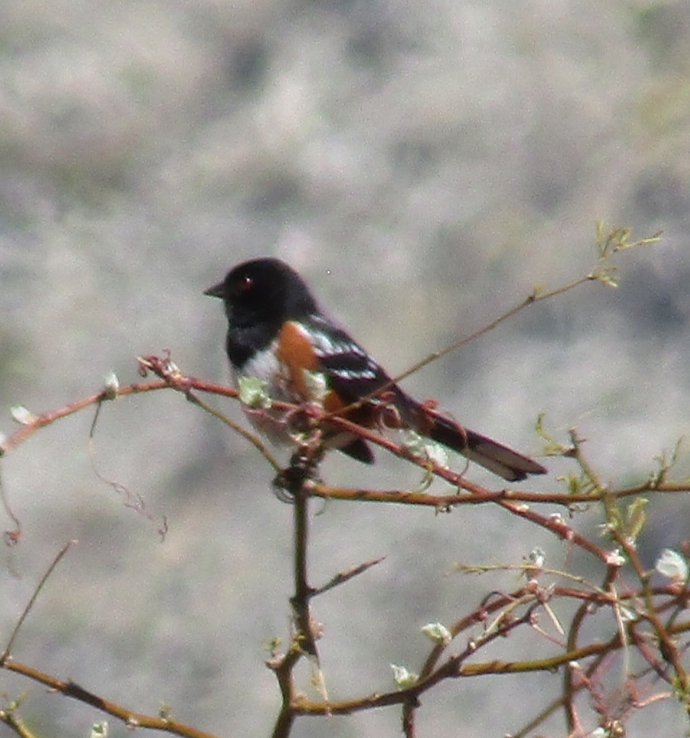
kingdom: Animalia
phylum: Chordata
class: Aves
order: Passeriformes
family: Passerellidae
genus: Pipilo
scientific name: Pipilo maculatus
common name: Spotted towhee
